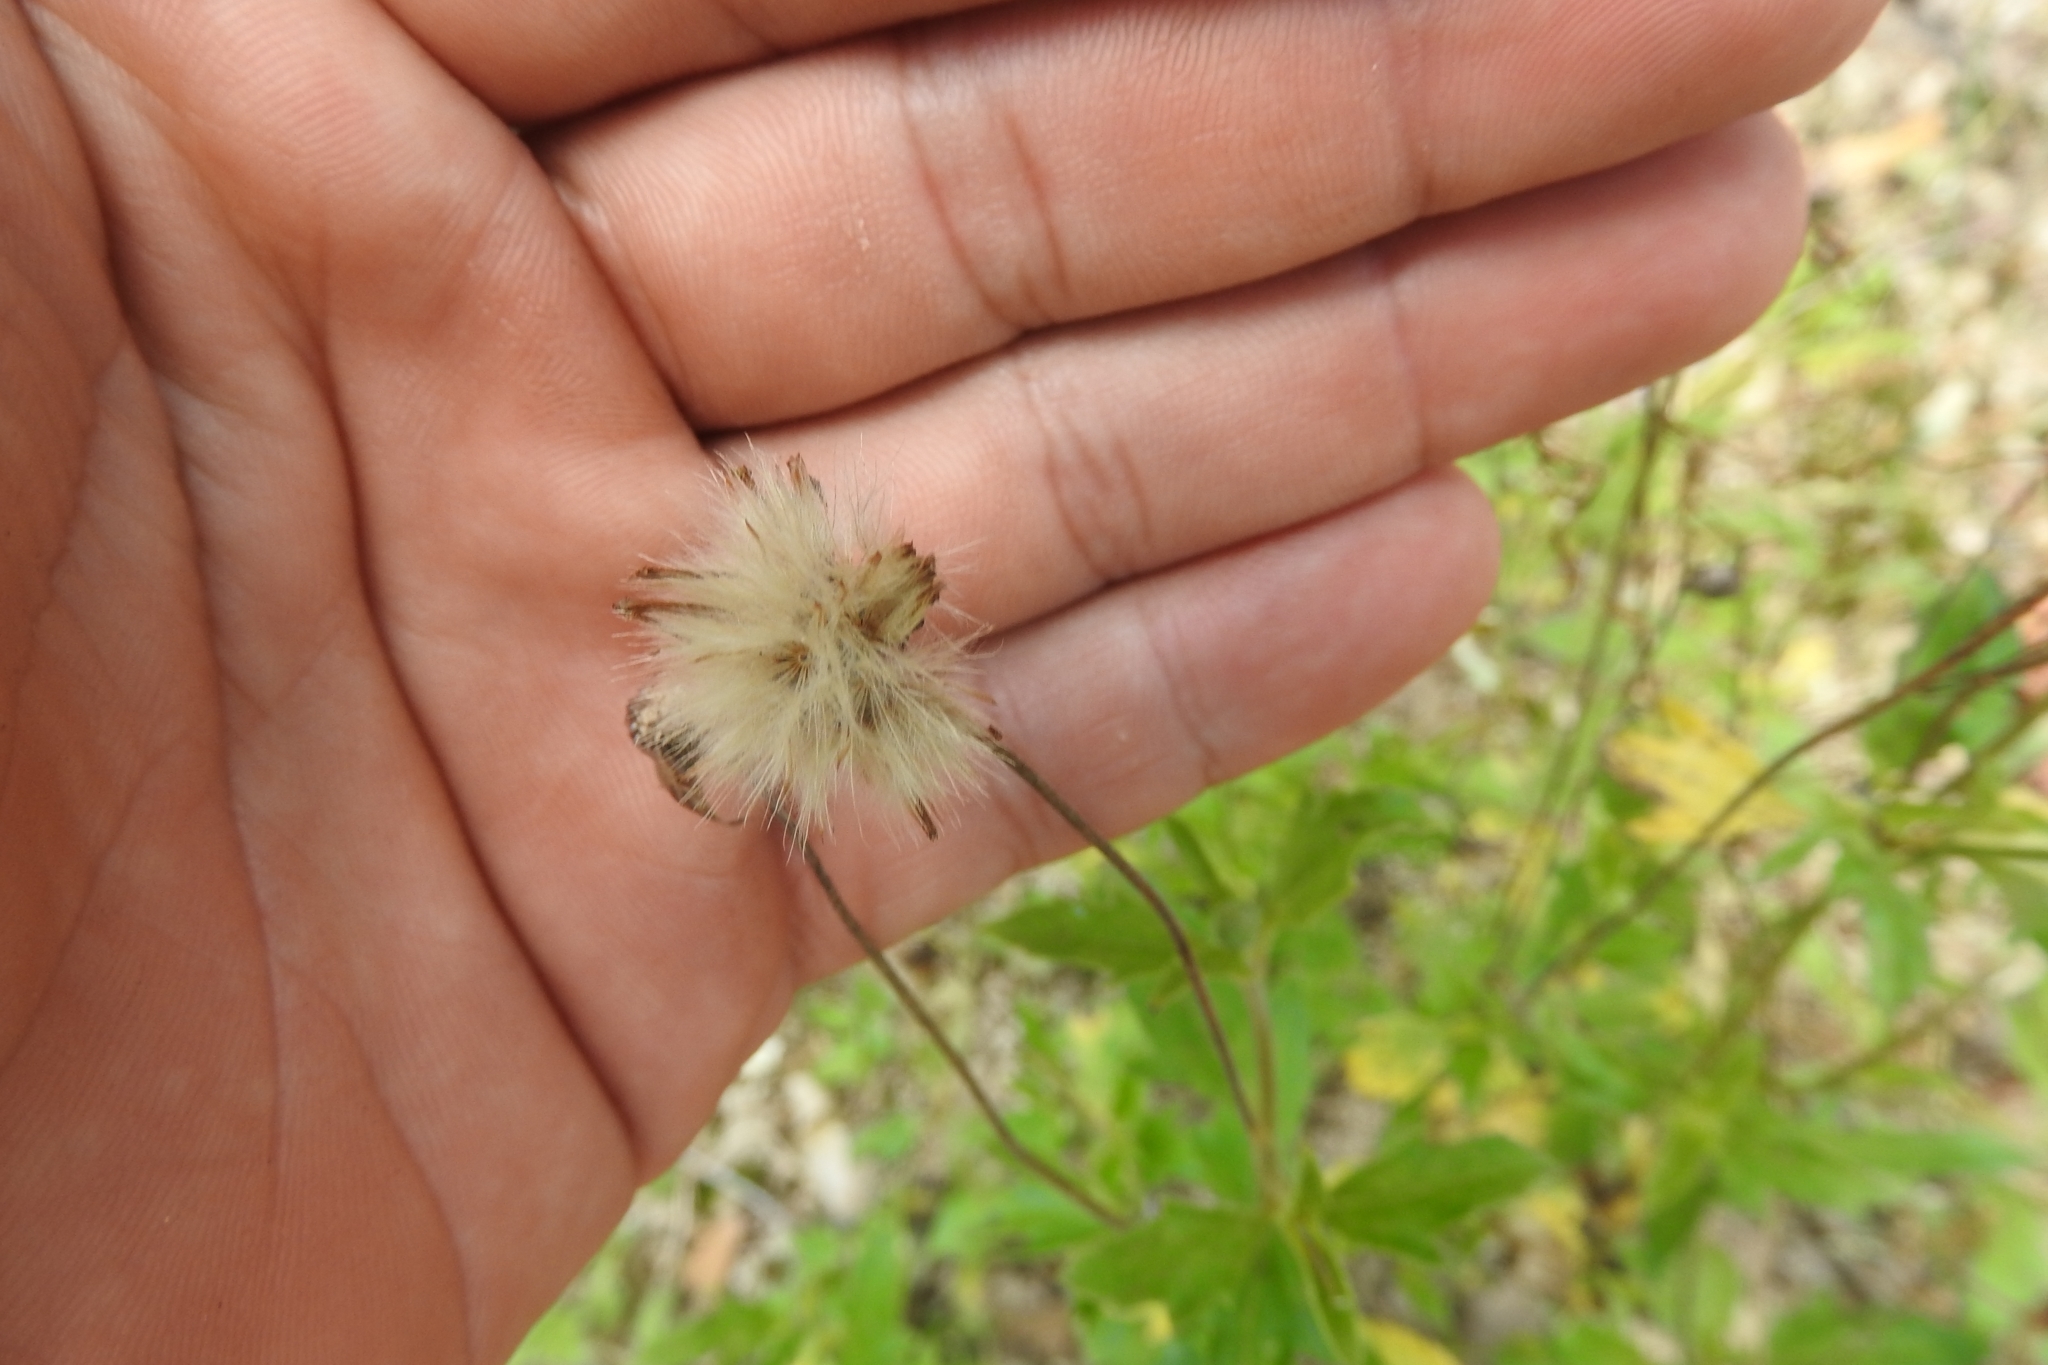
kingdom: Plantae
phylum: Tracheophyta
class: Magnoliopsida
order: Asterales
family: Asteraceae
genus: Tridax
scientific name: Tridax procumbens
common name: Coatbuttons
